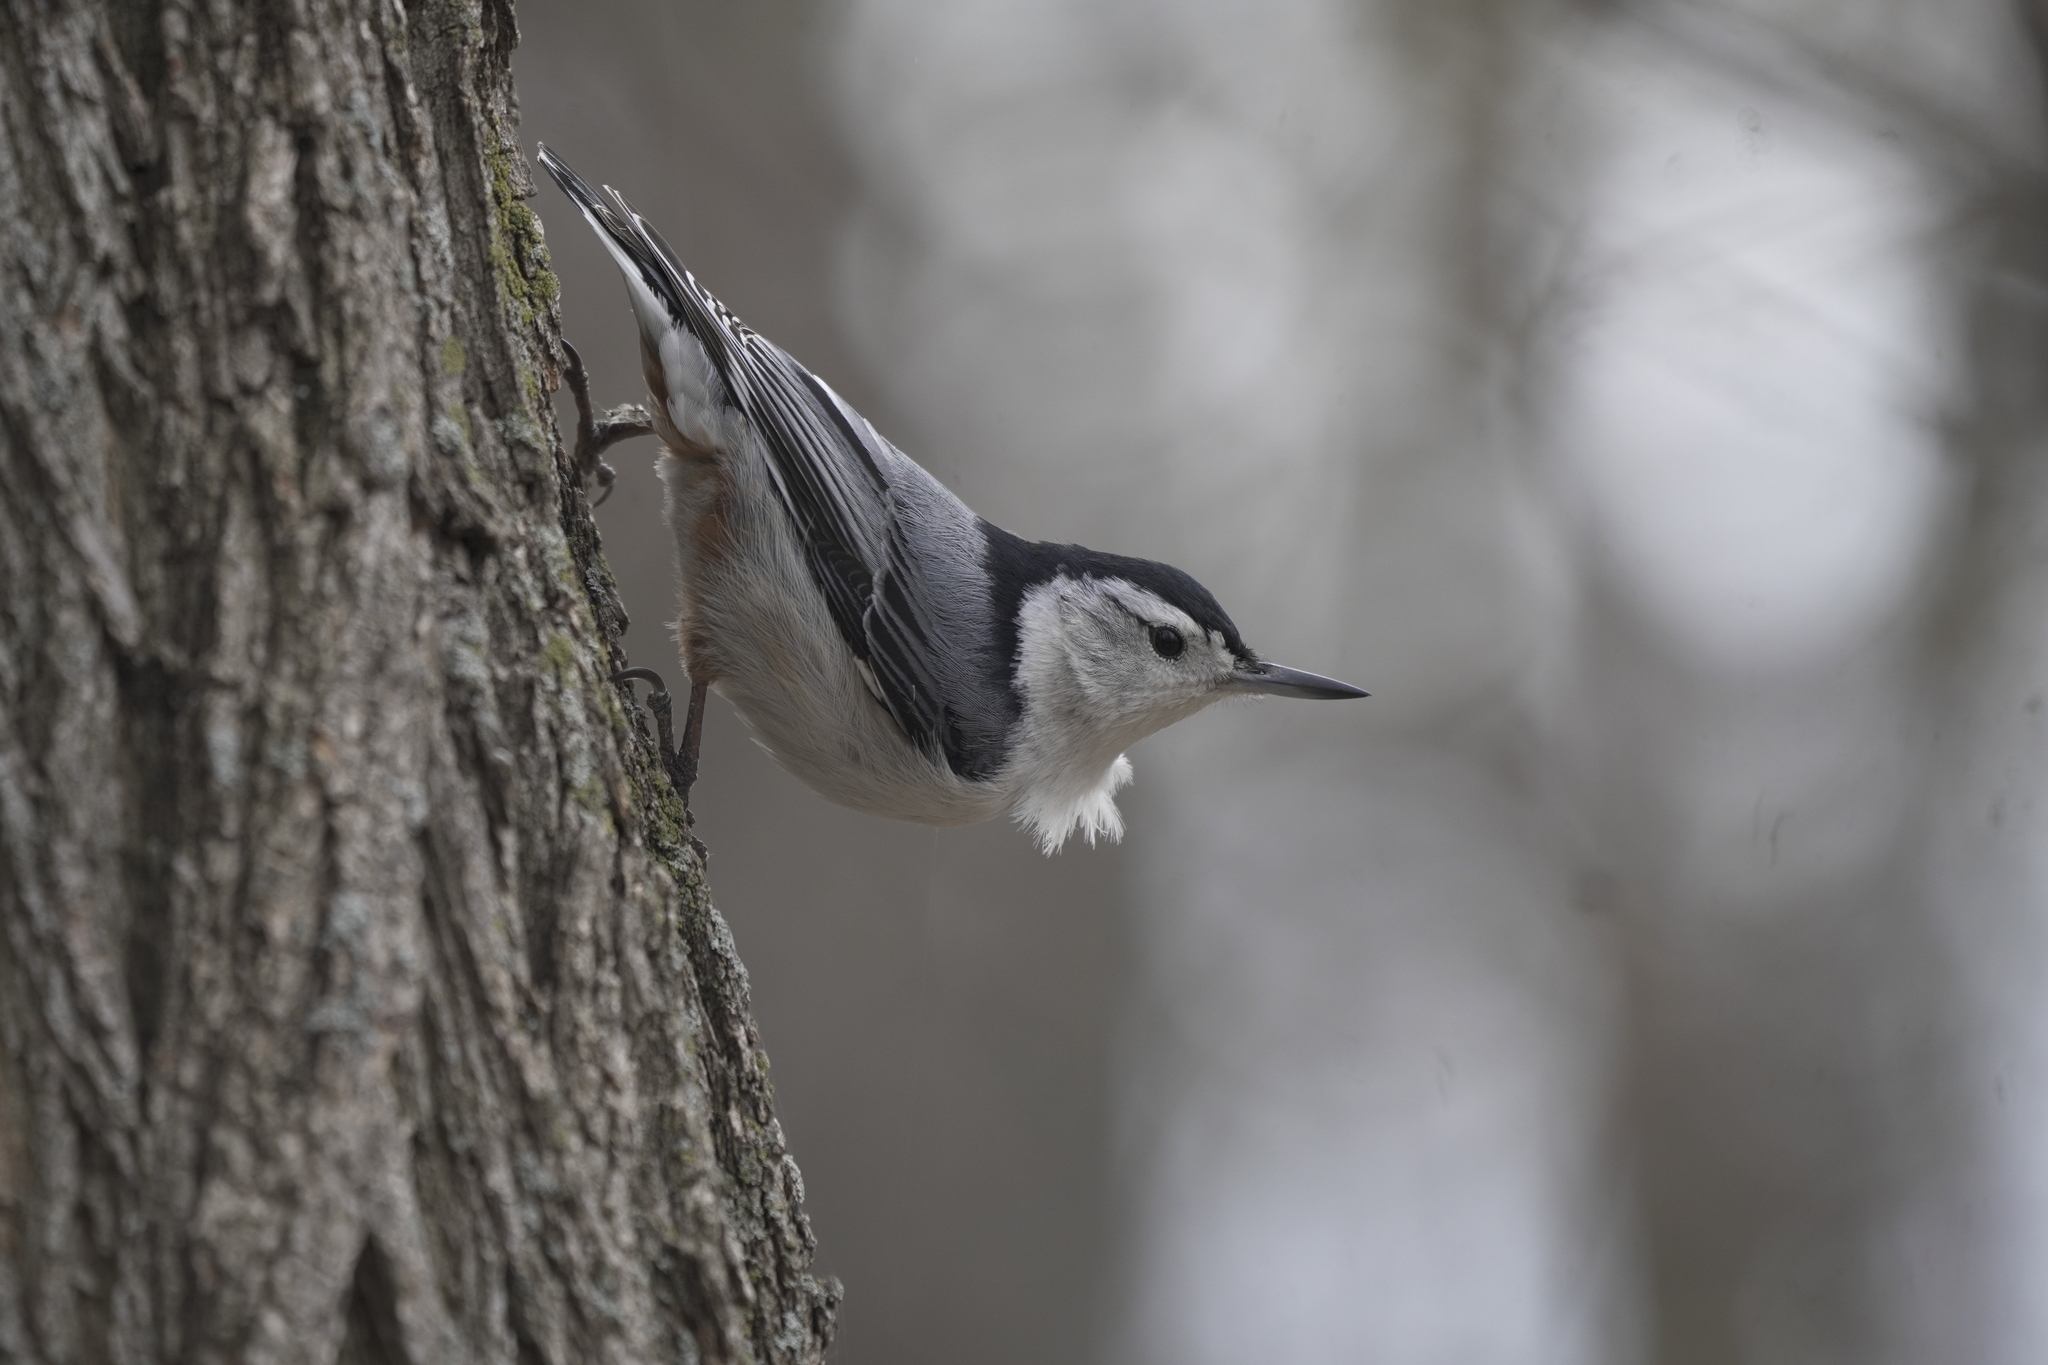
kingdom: Animalia
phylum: Chordata
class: Aves
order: Passeriformes
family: Sittidae
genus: Sitta
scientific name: Sitta carolinensis
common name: White-breasted nuthatch
